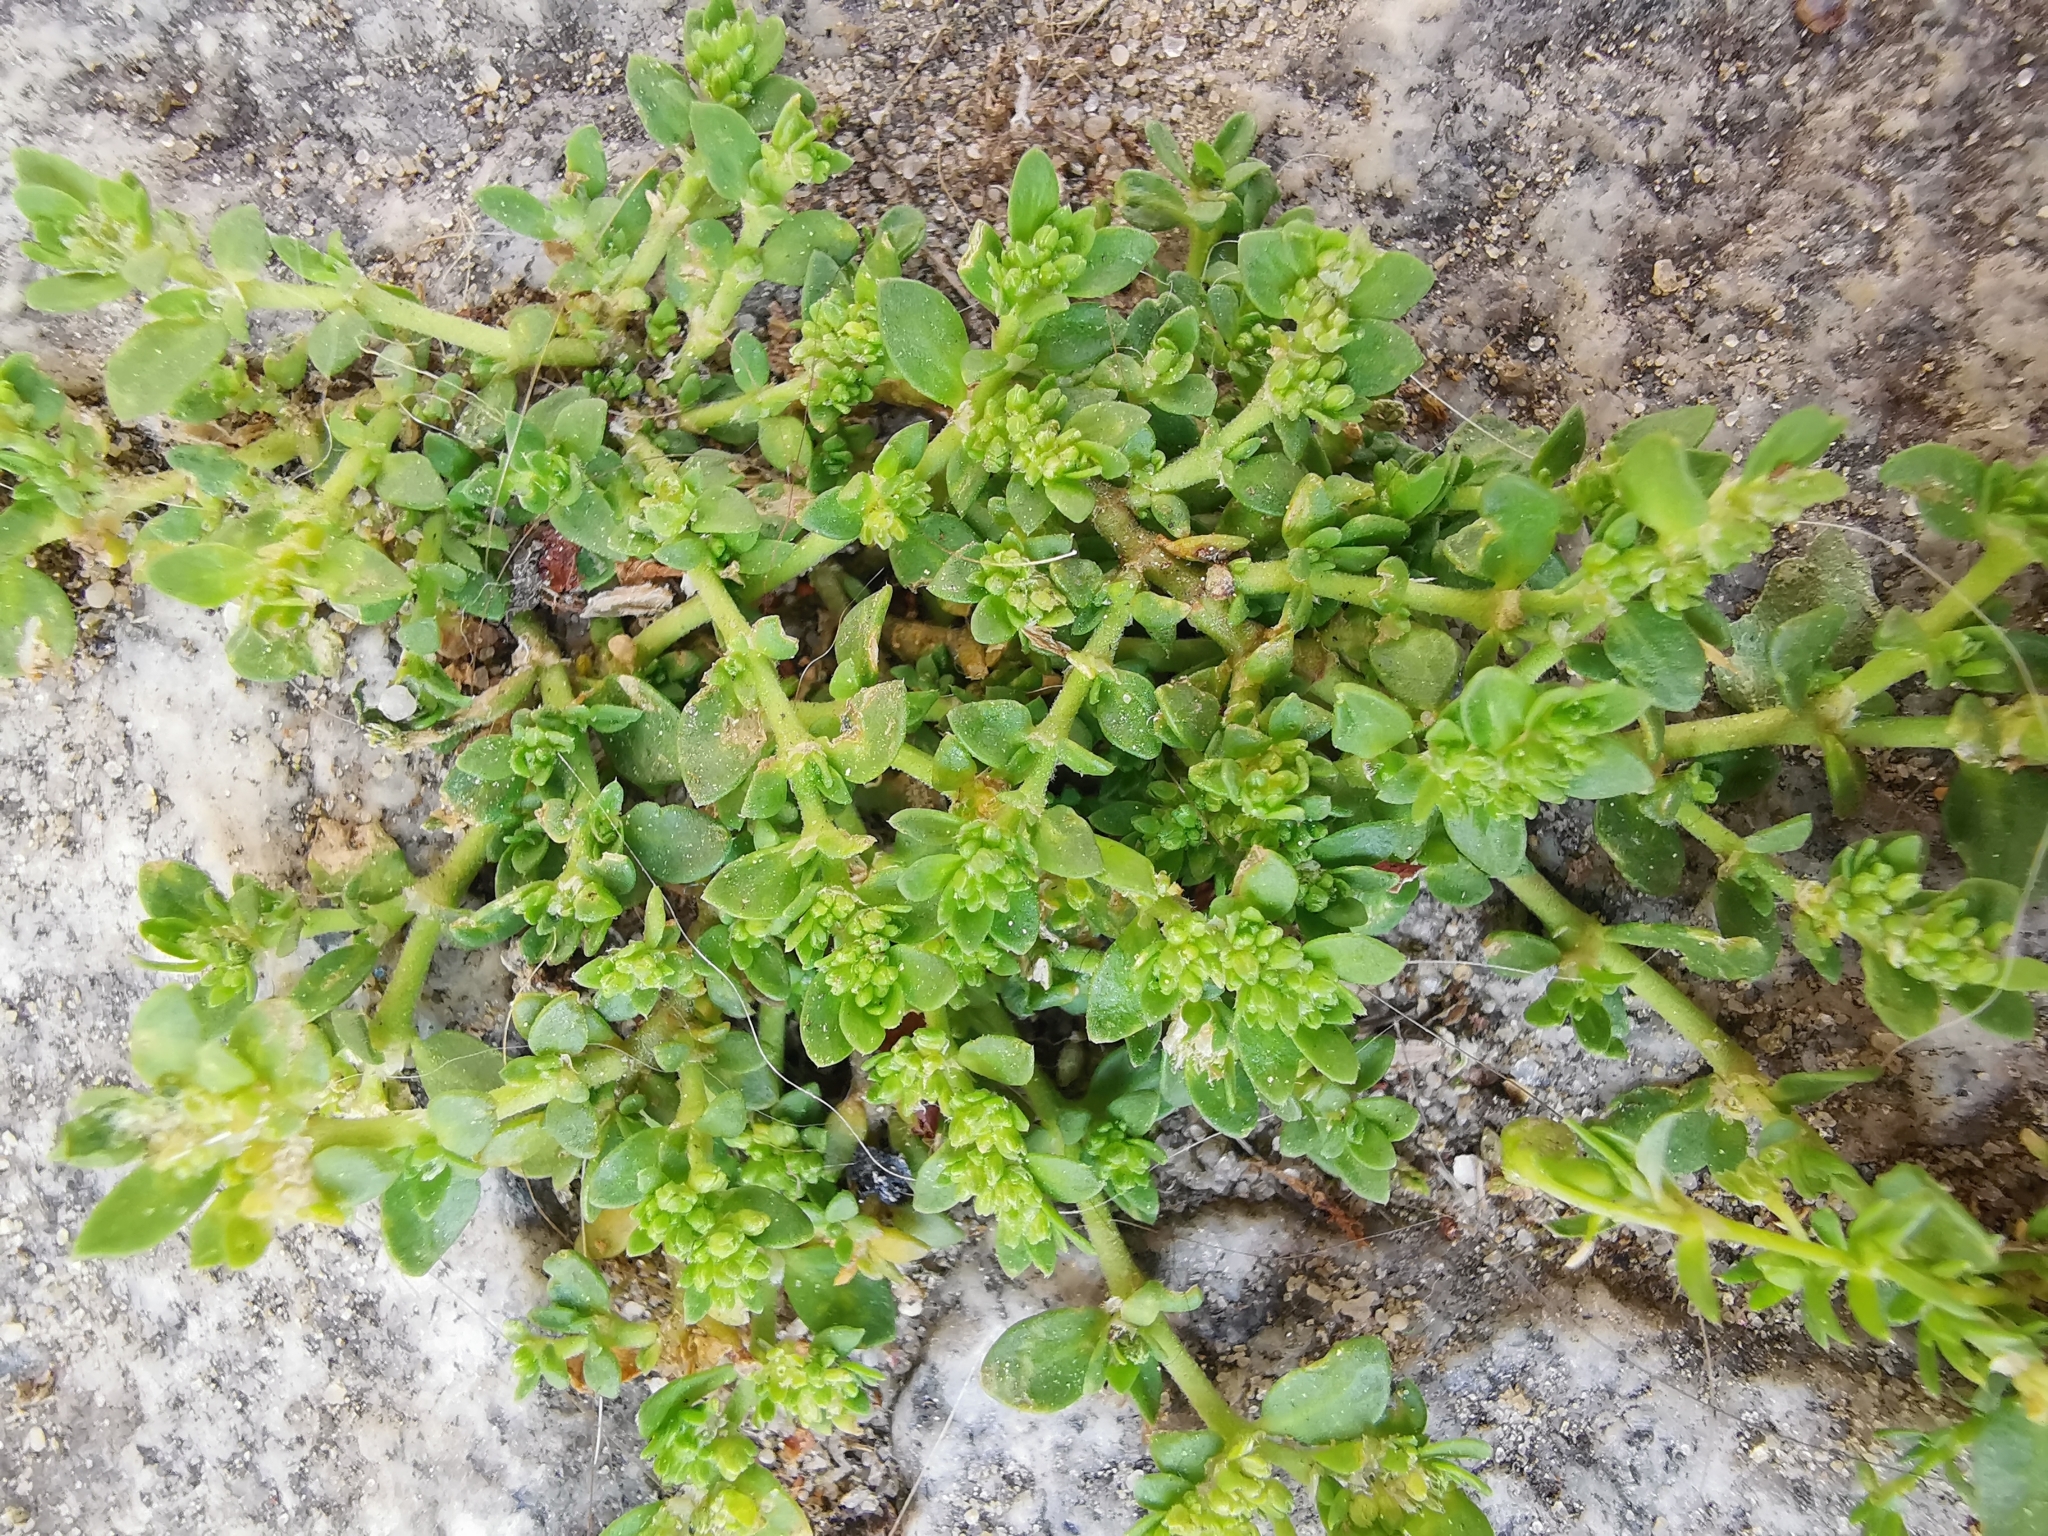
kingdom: Plantae
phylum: Tracheophyta
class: Magnoliopsida
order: Caryophyllales
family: Caryophyllaceae
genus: Herniaria
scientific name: Herniaria glabra
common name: Smooth rupturewort
